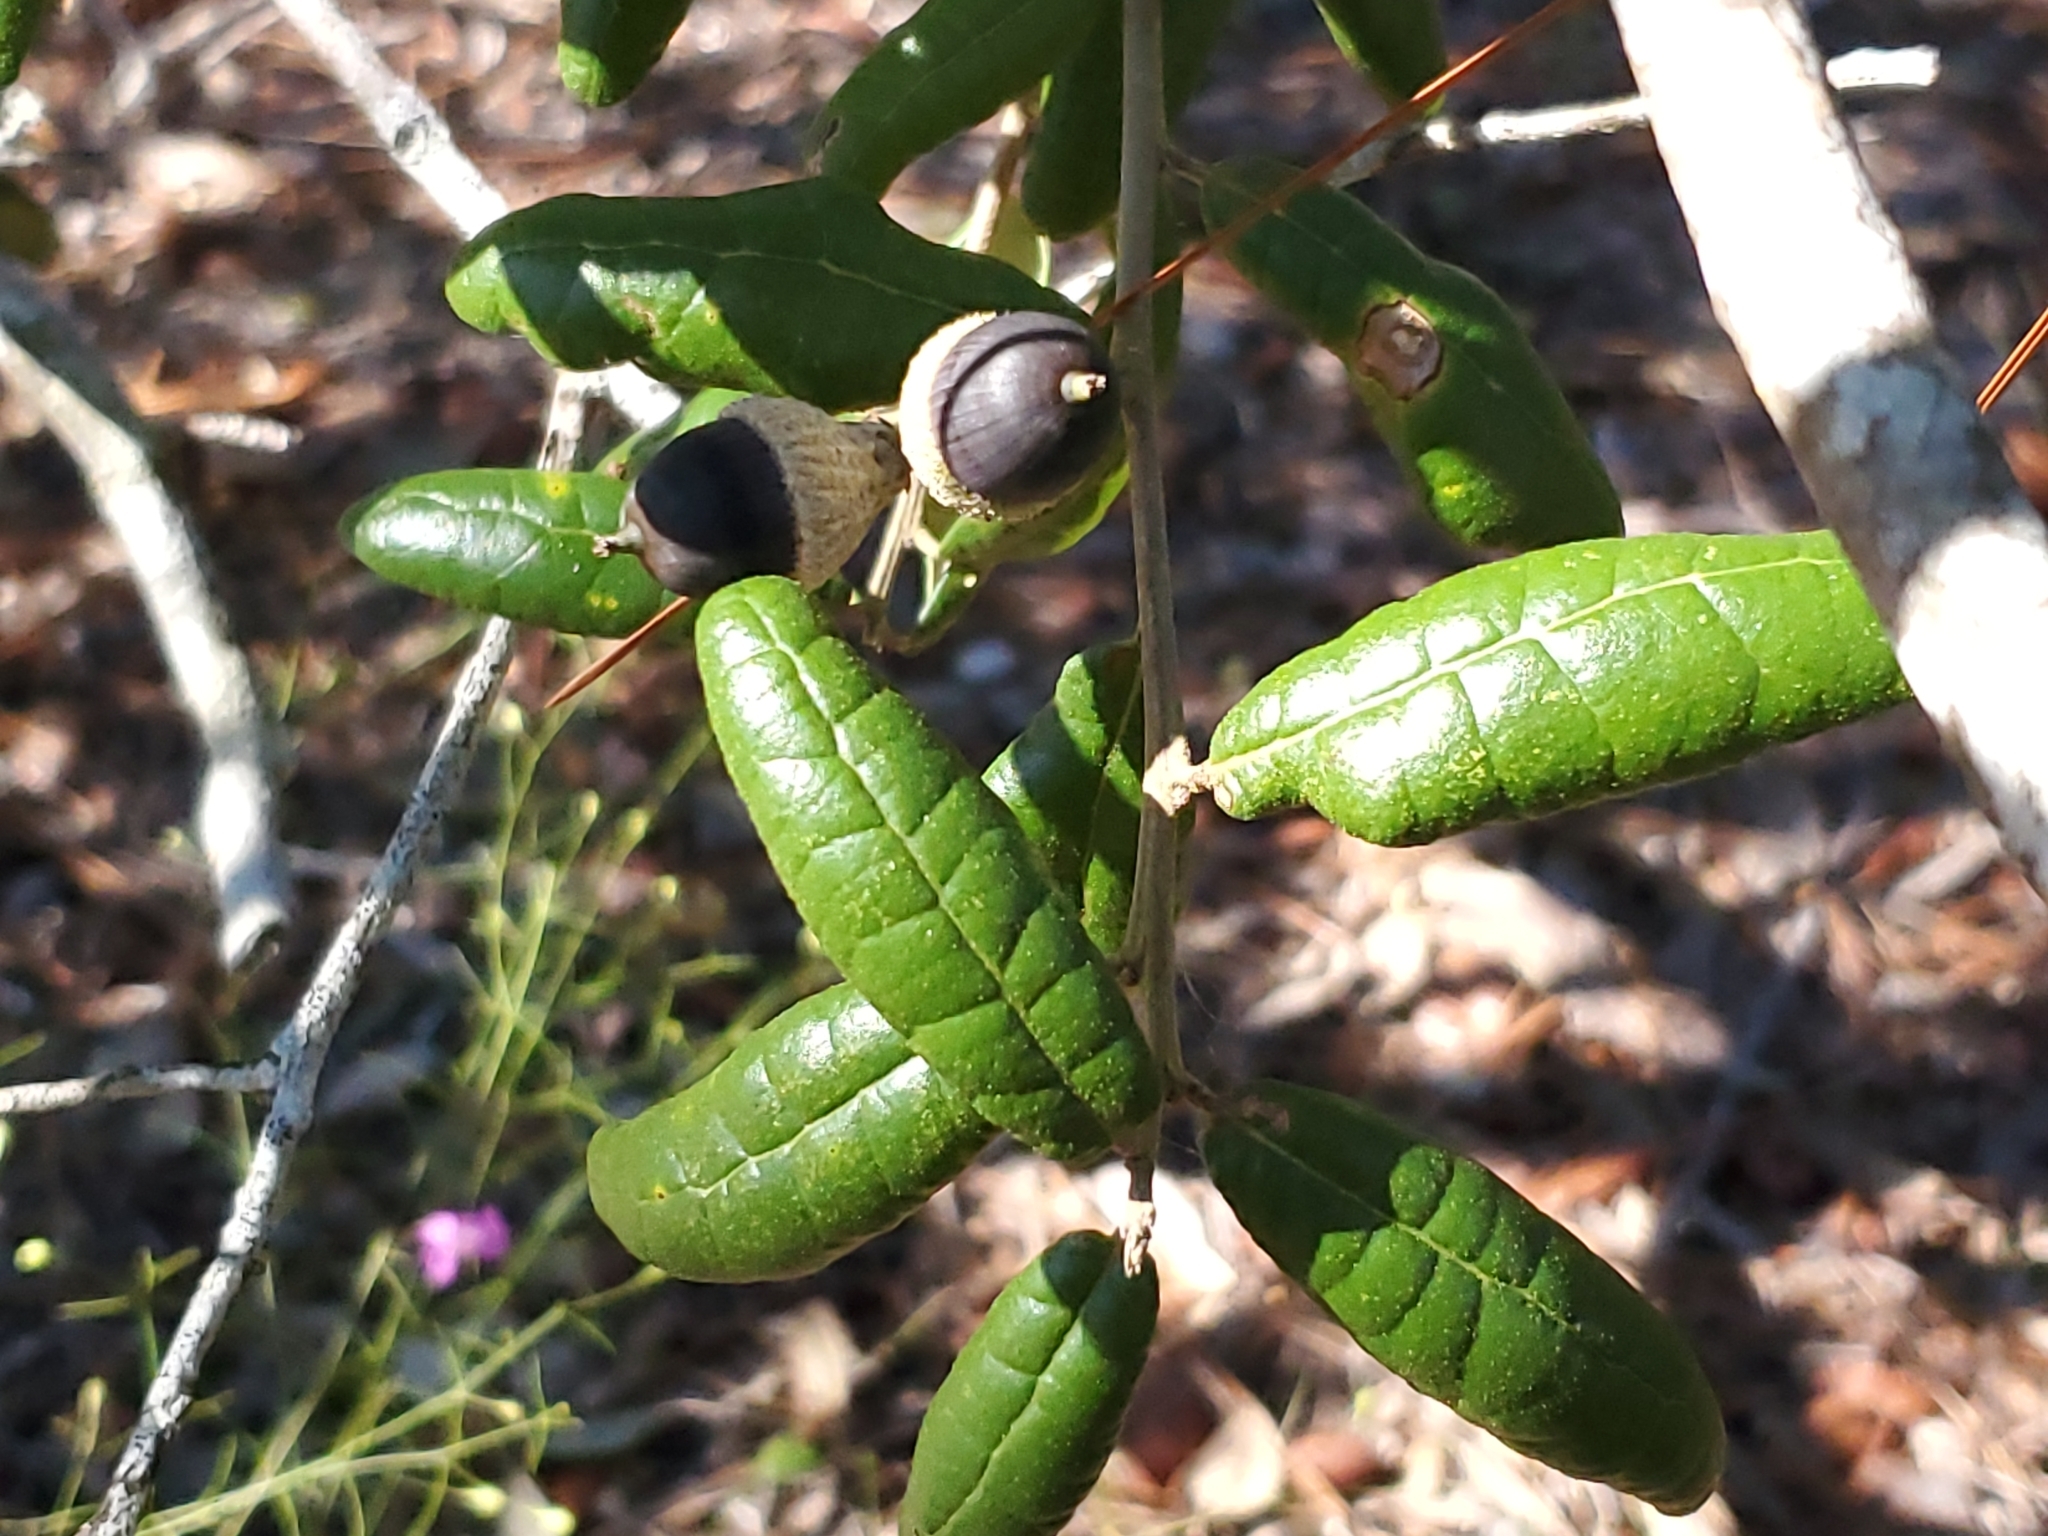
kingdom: Plantae
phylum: Tracheophyta
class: Magnoliopsida
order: Fagales
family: Fagaceae
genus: Quercus
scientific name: Quercus geminata
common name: Sand live oak
